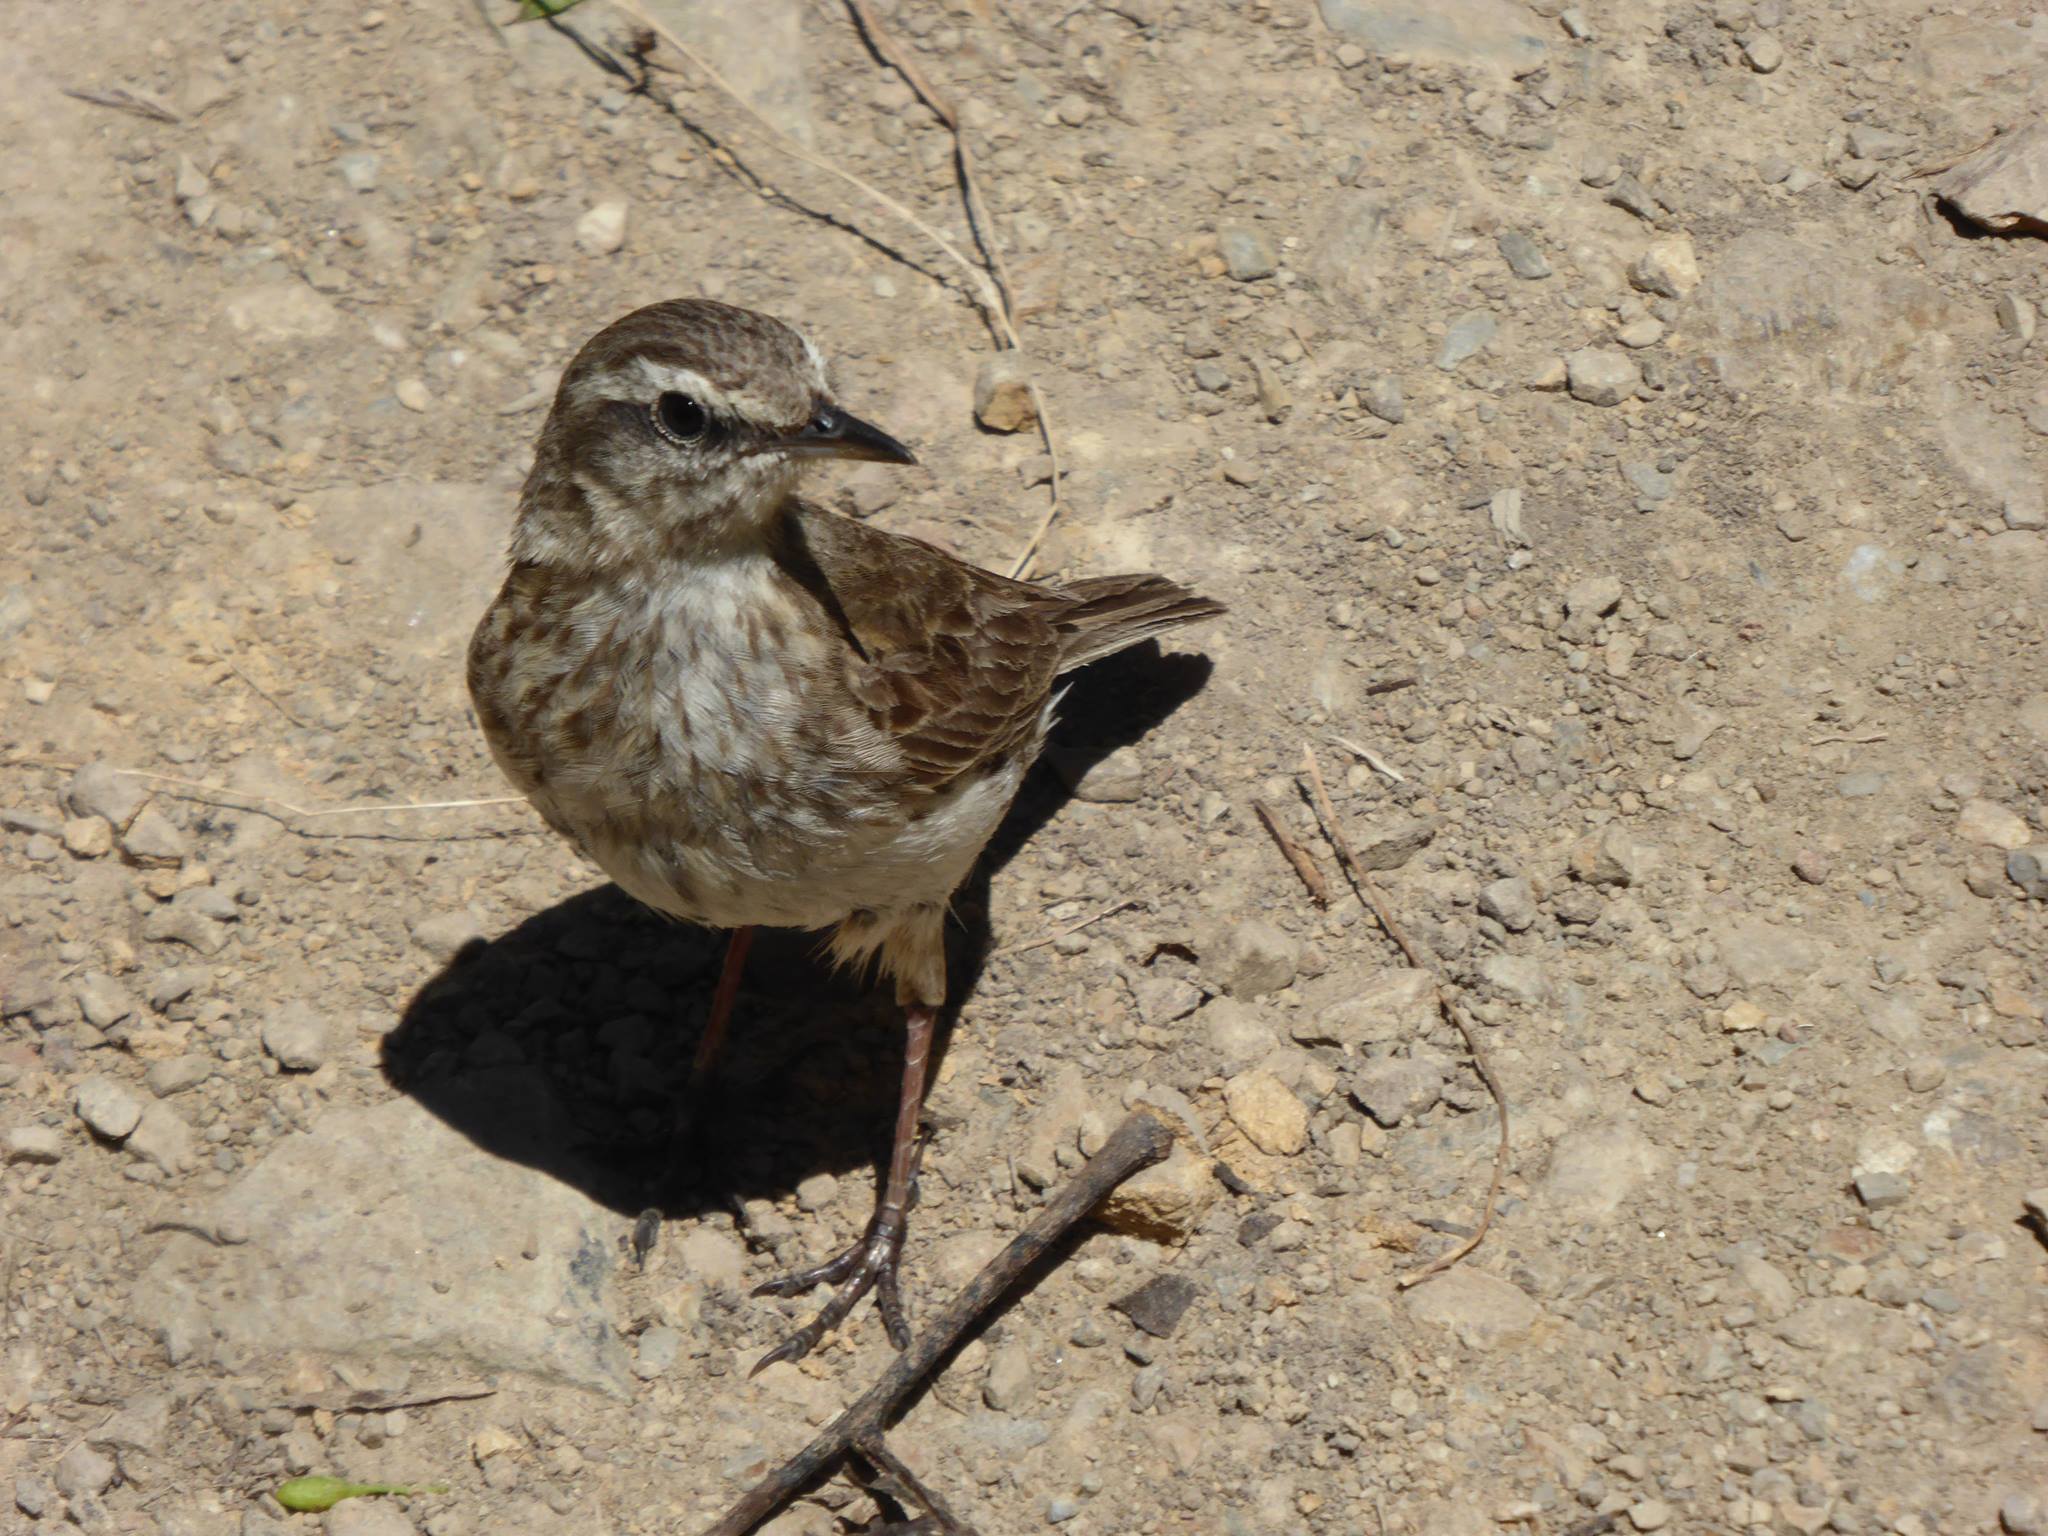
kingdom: Animalia
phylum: Chordata
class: Aves
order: Passeriformes
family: Motacillidae
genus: Anthus
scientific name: Anthus novaeseelandiae
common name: New zealand pipit
